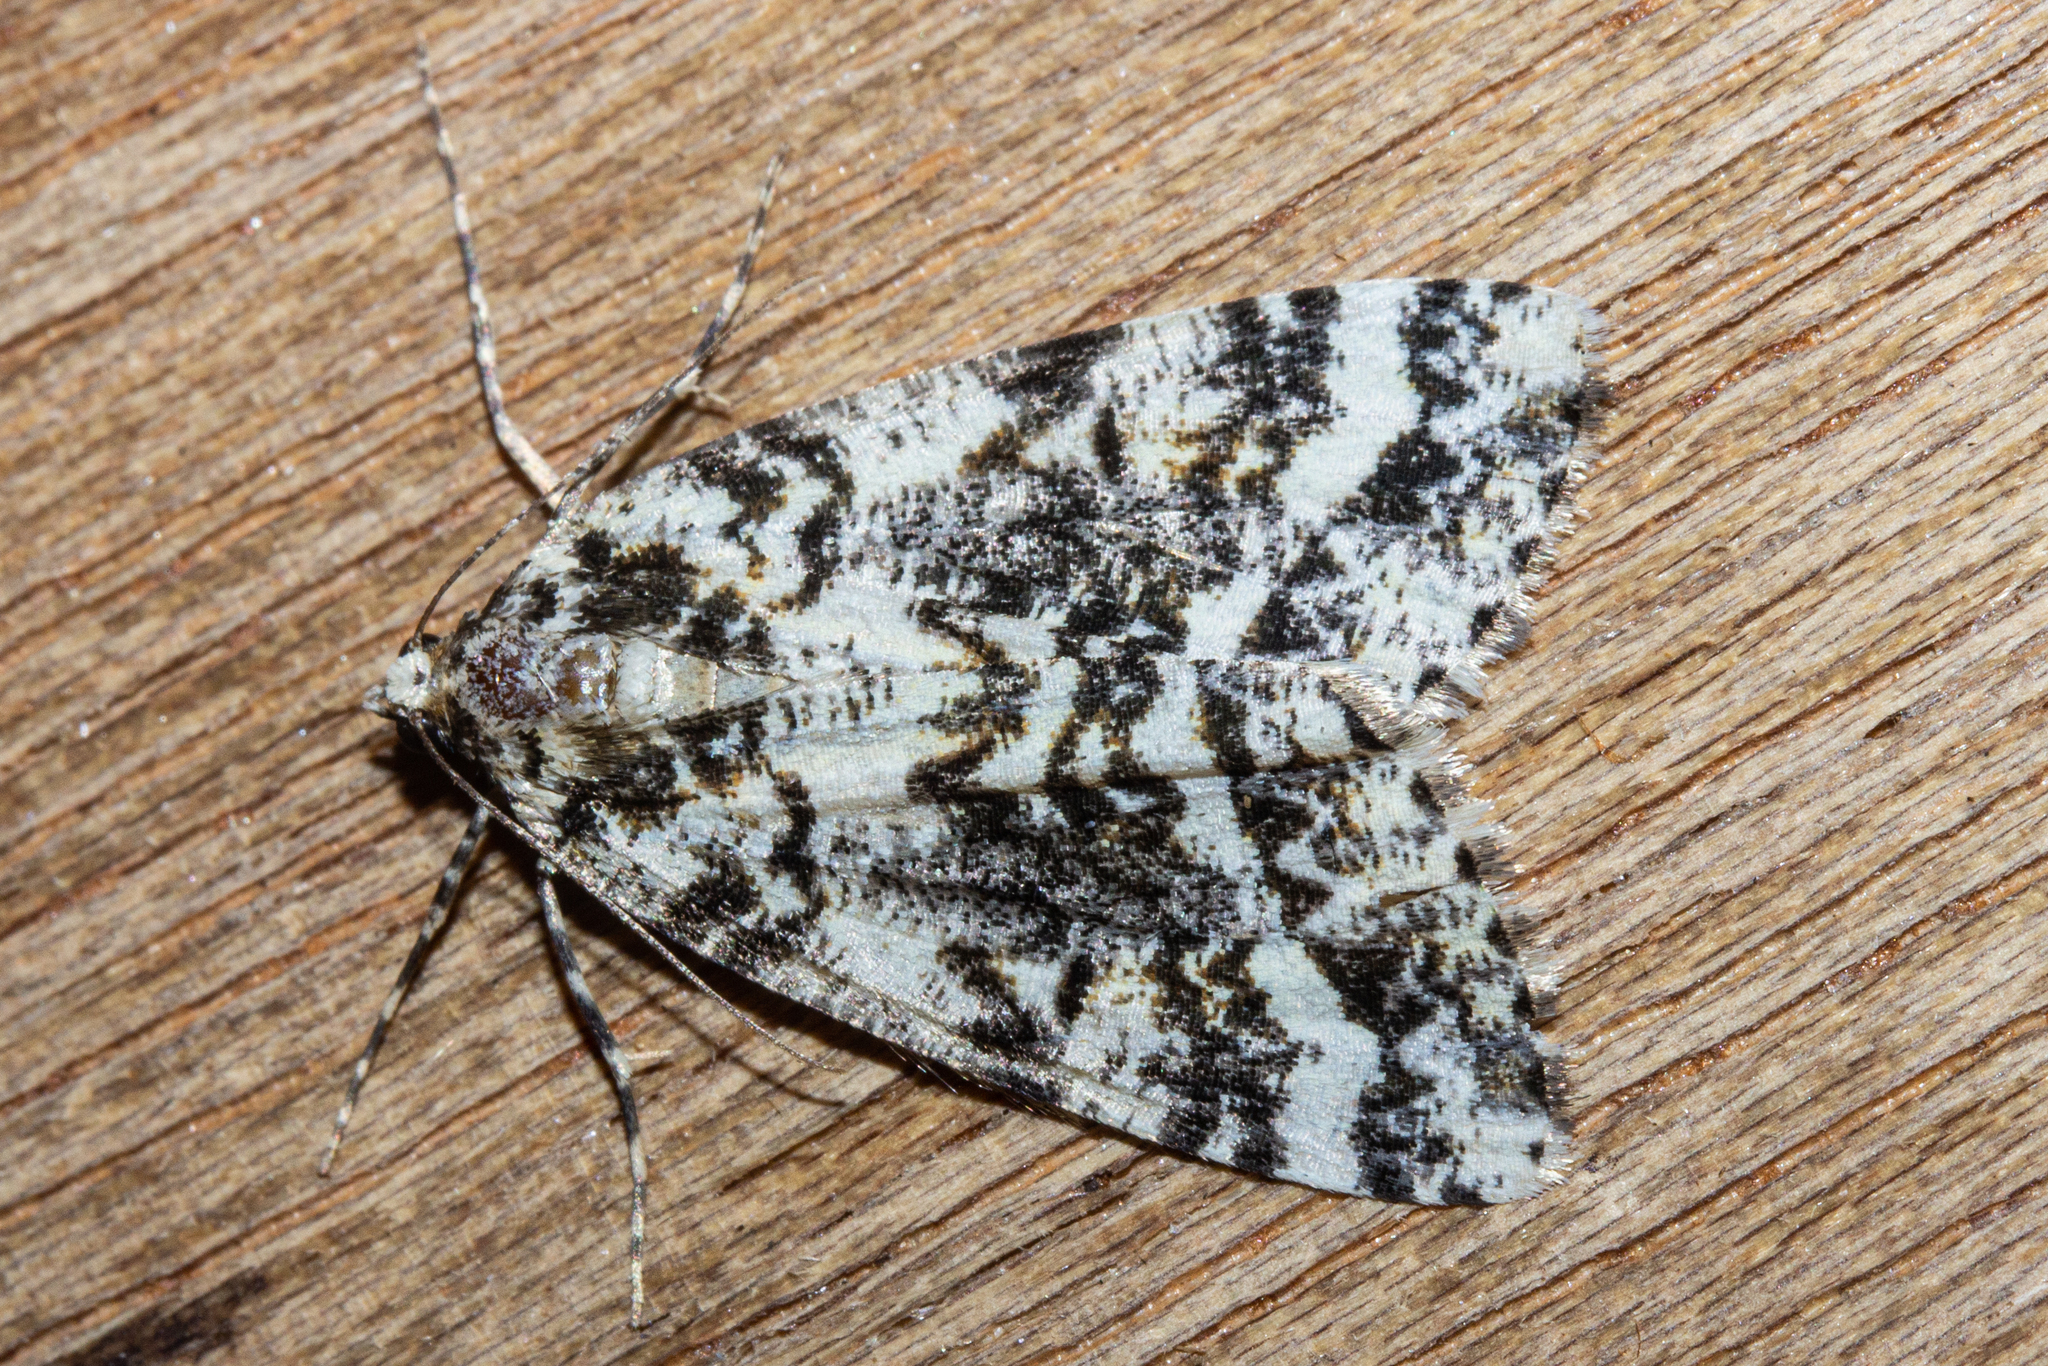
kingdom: Animalia
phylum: Arthropoda
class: Insecta
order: Lepidoptera
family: Geometridae
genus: Pseudocoremia
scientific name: Pseudocoremia leucelaea
